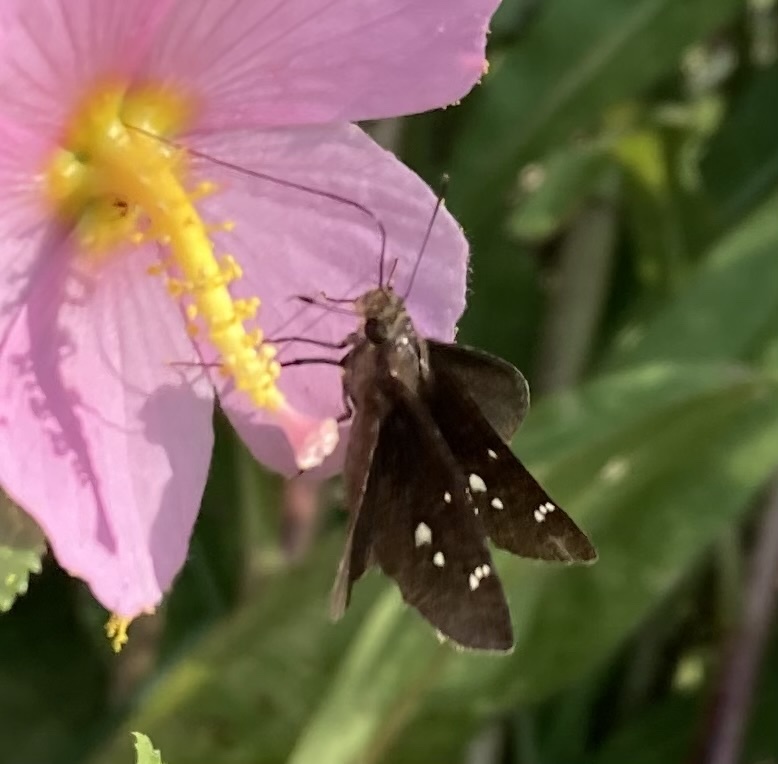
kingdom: Animalia
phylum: Arthropoda
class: Insecta
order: Lepidoptera
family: Hesperiidae
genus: Lerema
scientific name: Lerema accius
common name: Clouded skipper
